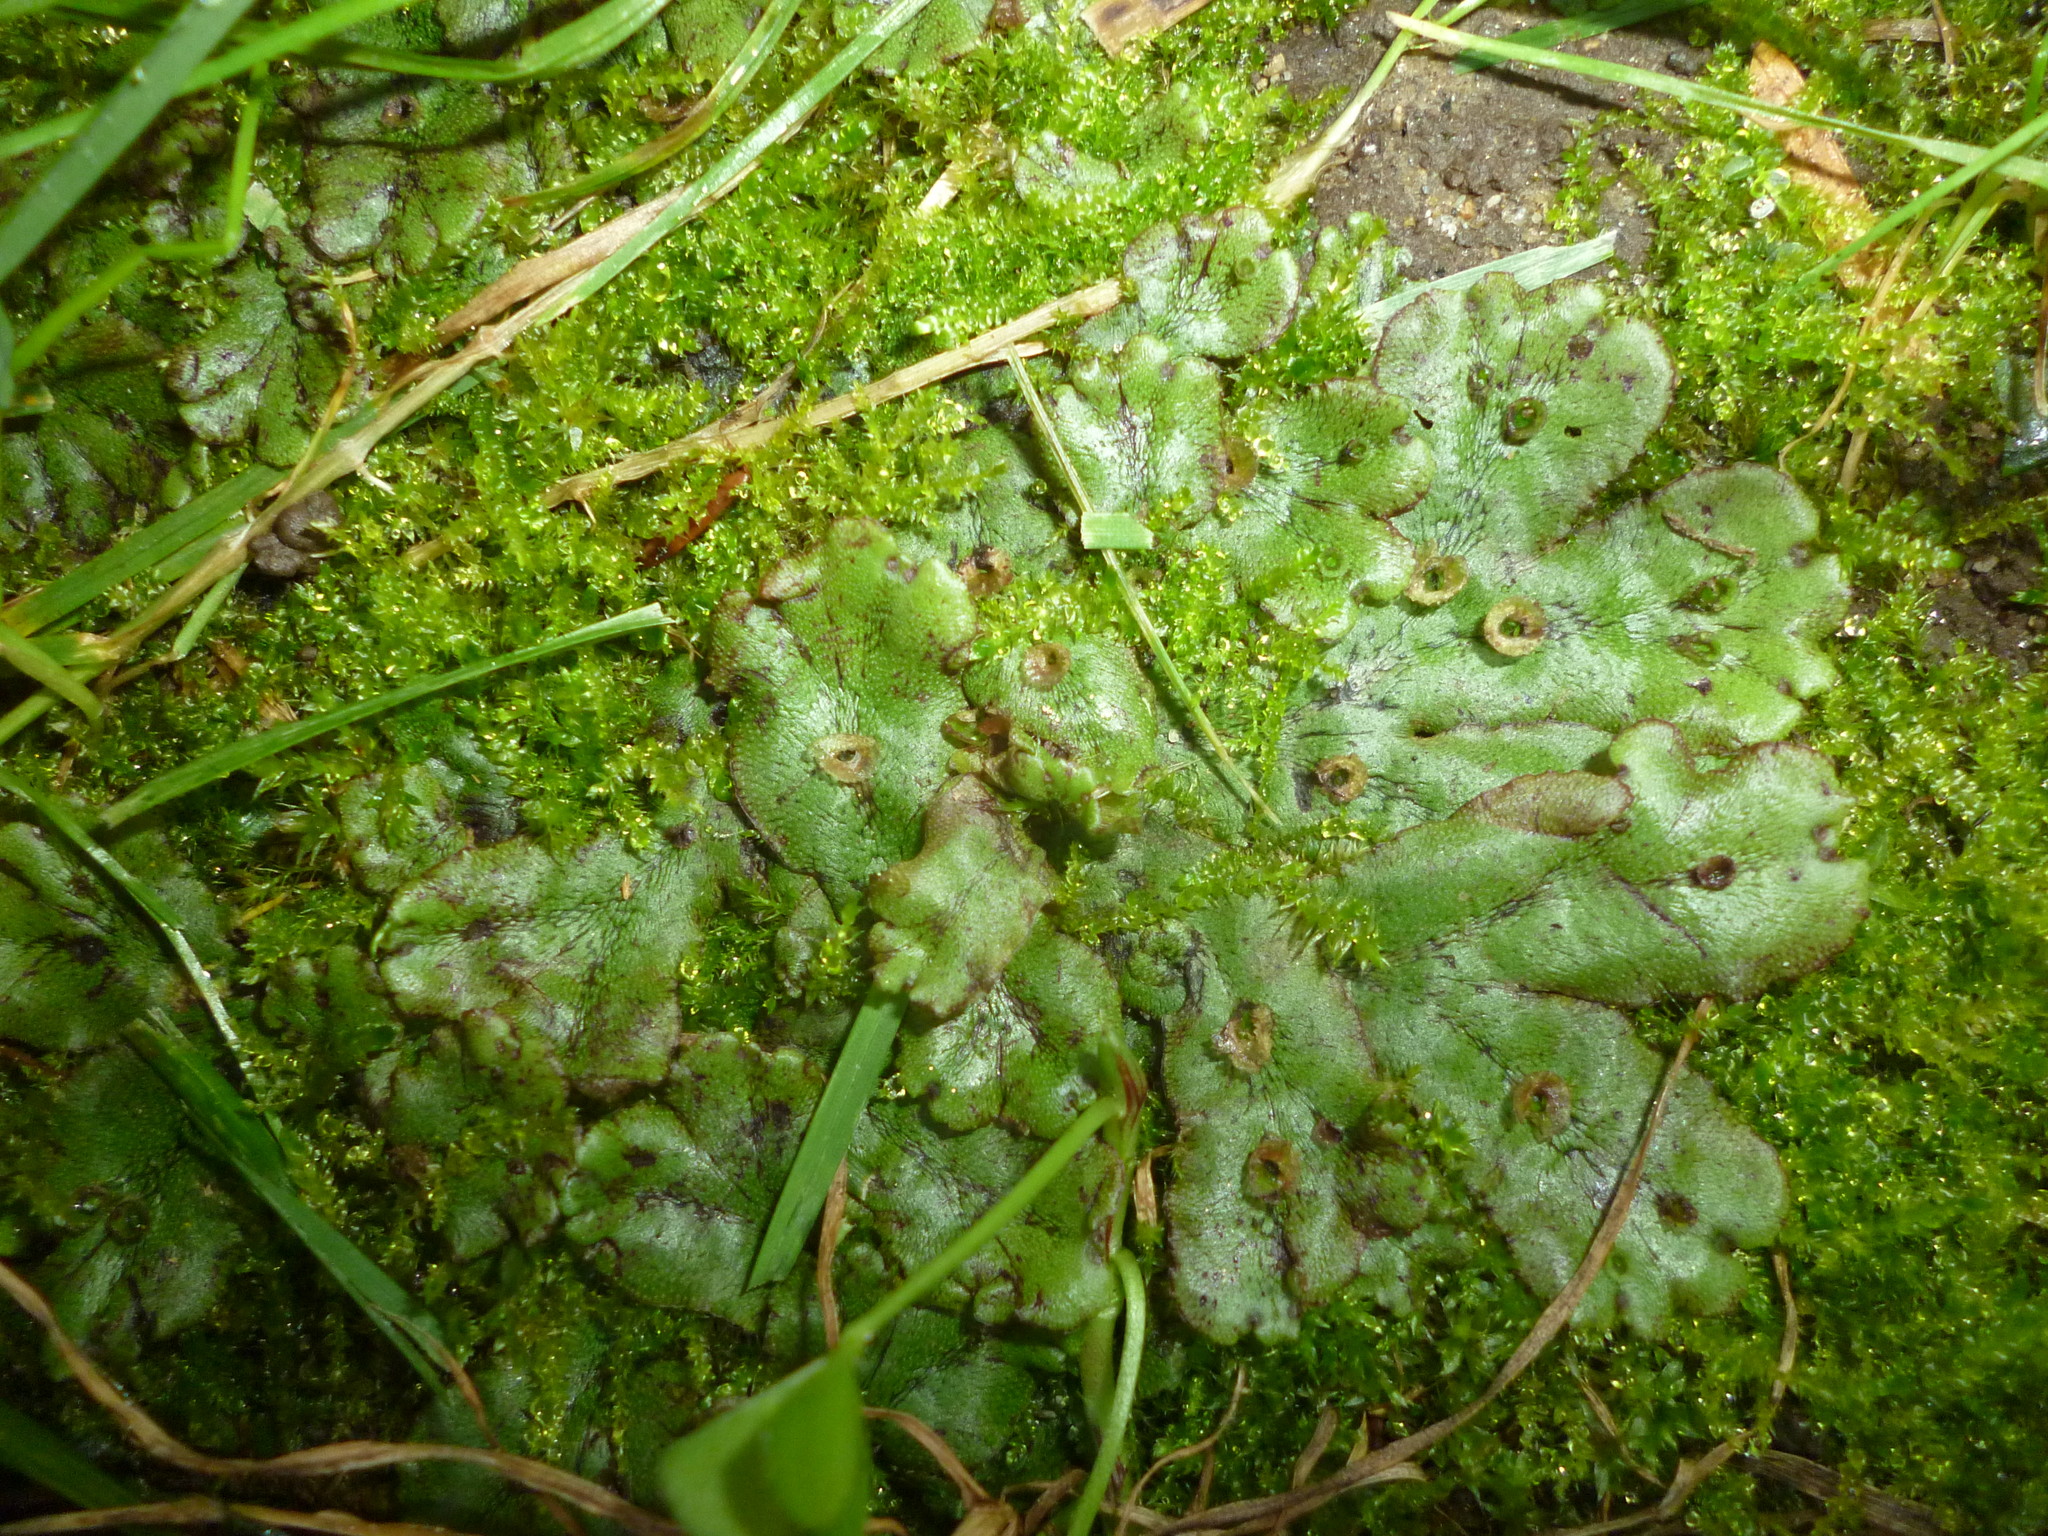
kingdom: Plantae
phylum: Marchantiophyta
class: Marchantiopsida
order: Marchantiales
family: Marchantiaceae
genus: Marchantia
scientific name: Marchantia polymorpha
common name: Common liverwort
